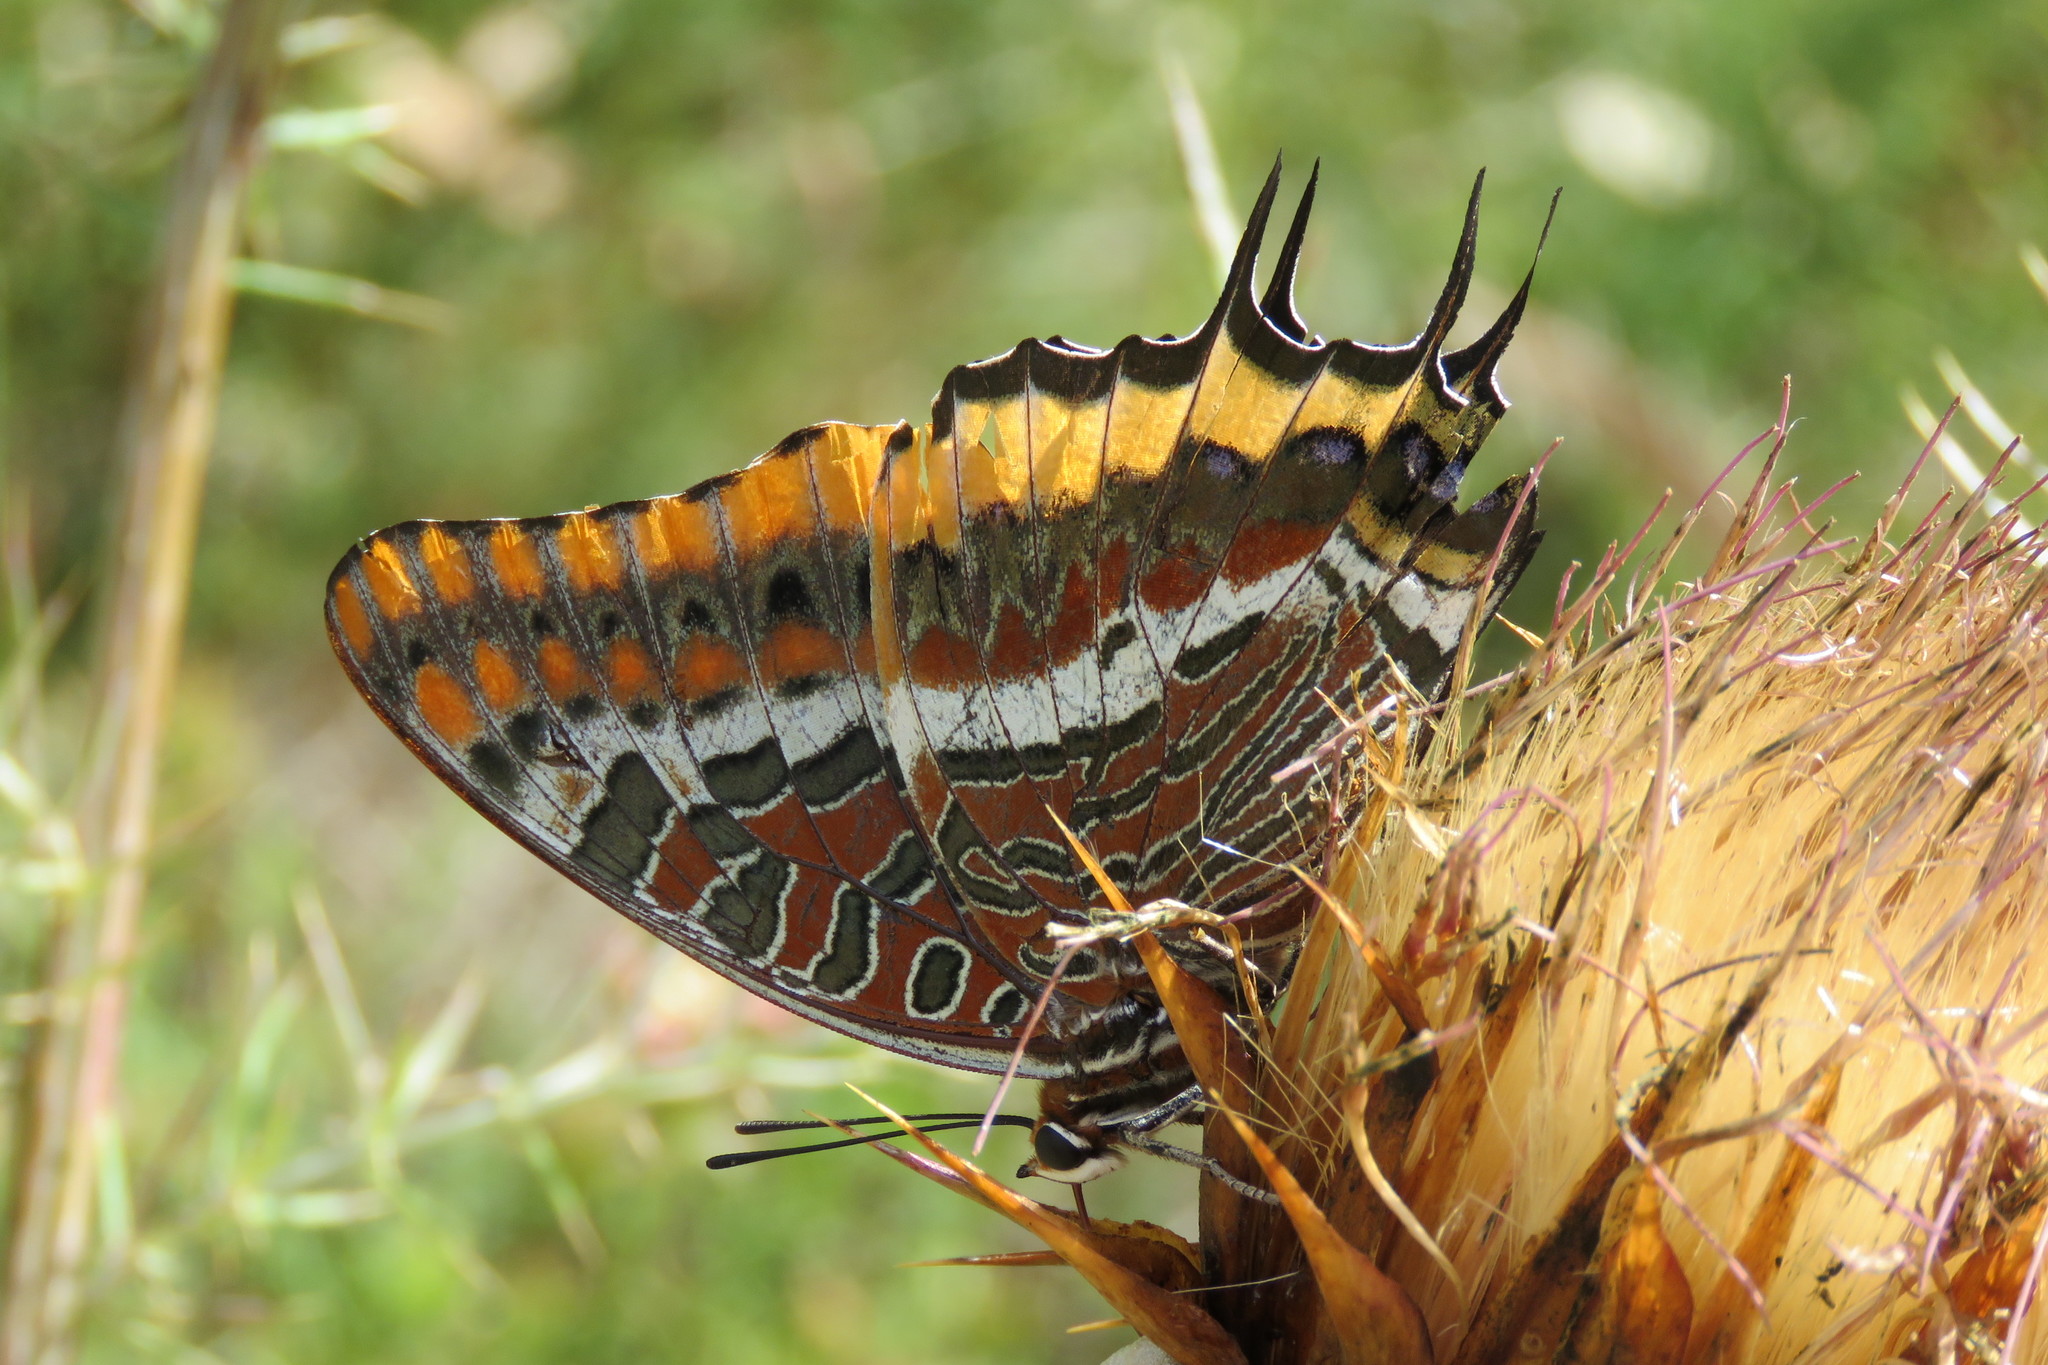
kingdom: Animalia
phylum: Arthropoda
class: Insecta
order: Lepidoptera
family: Nymphalidae
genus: Charaxes
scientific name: Charaxes jasius
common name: Two tailed pasha
